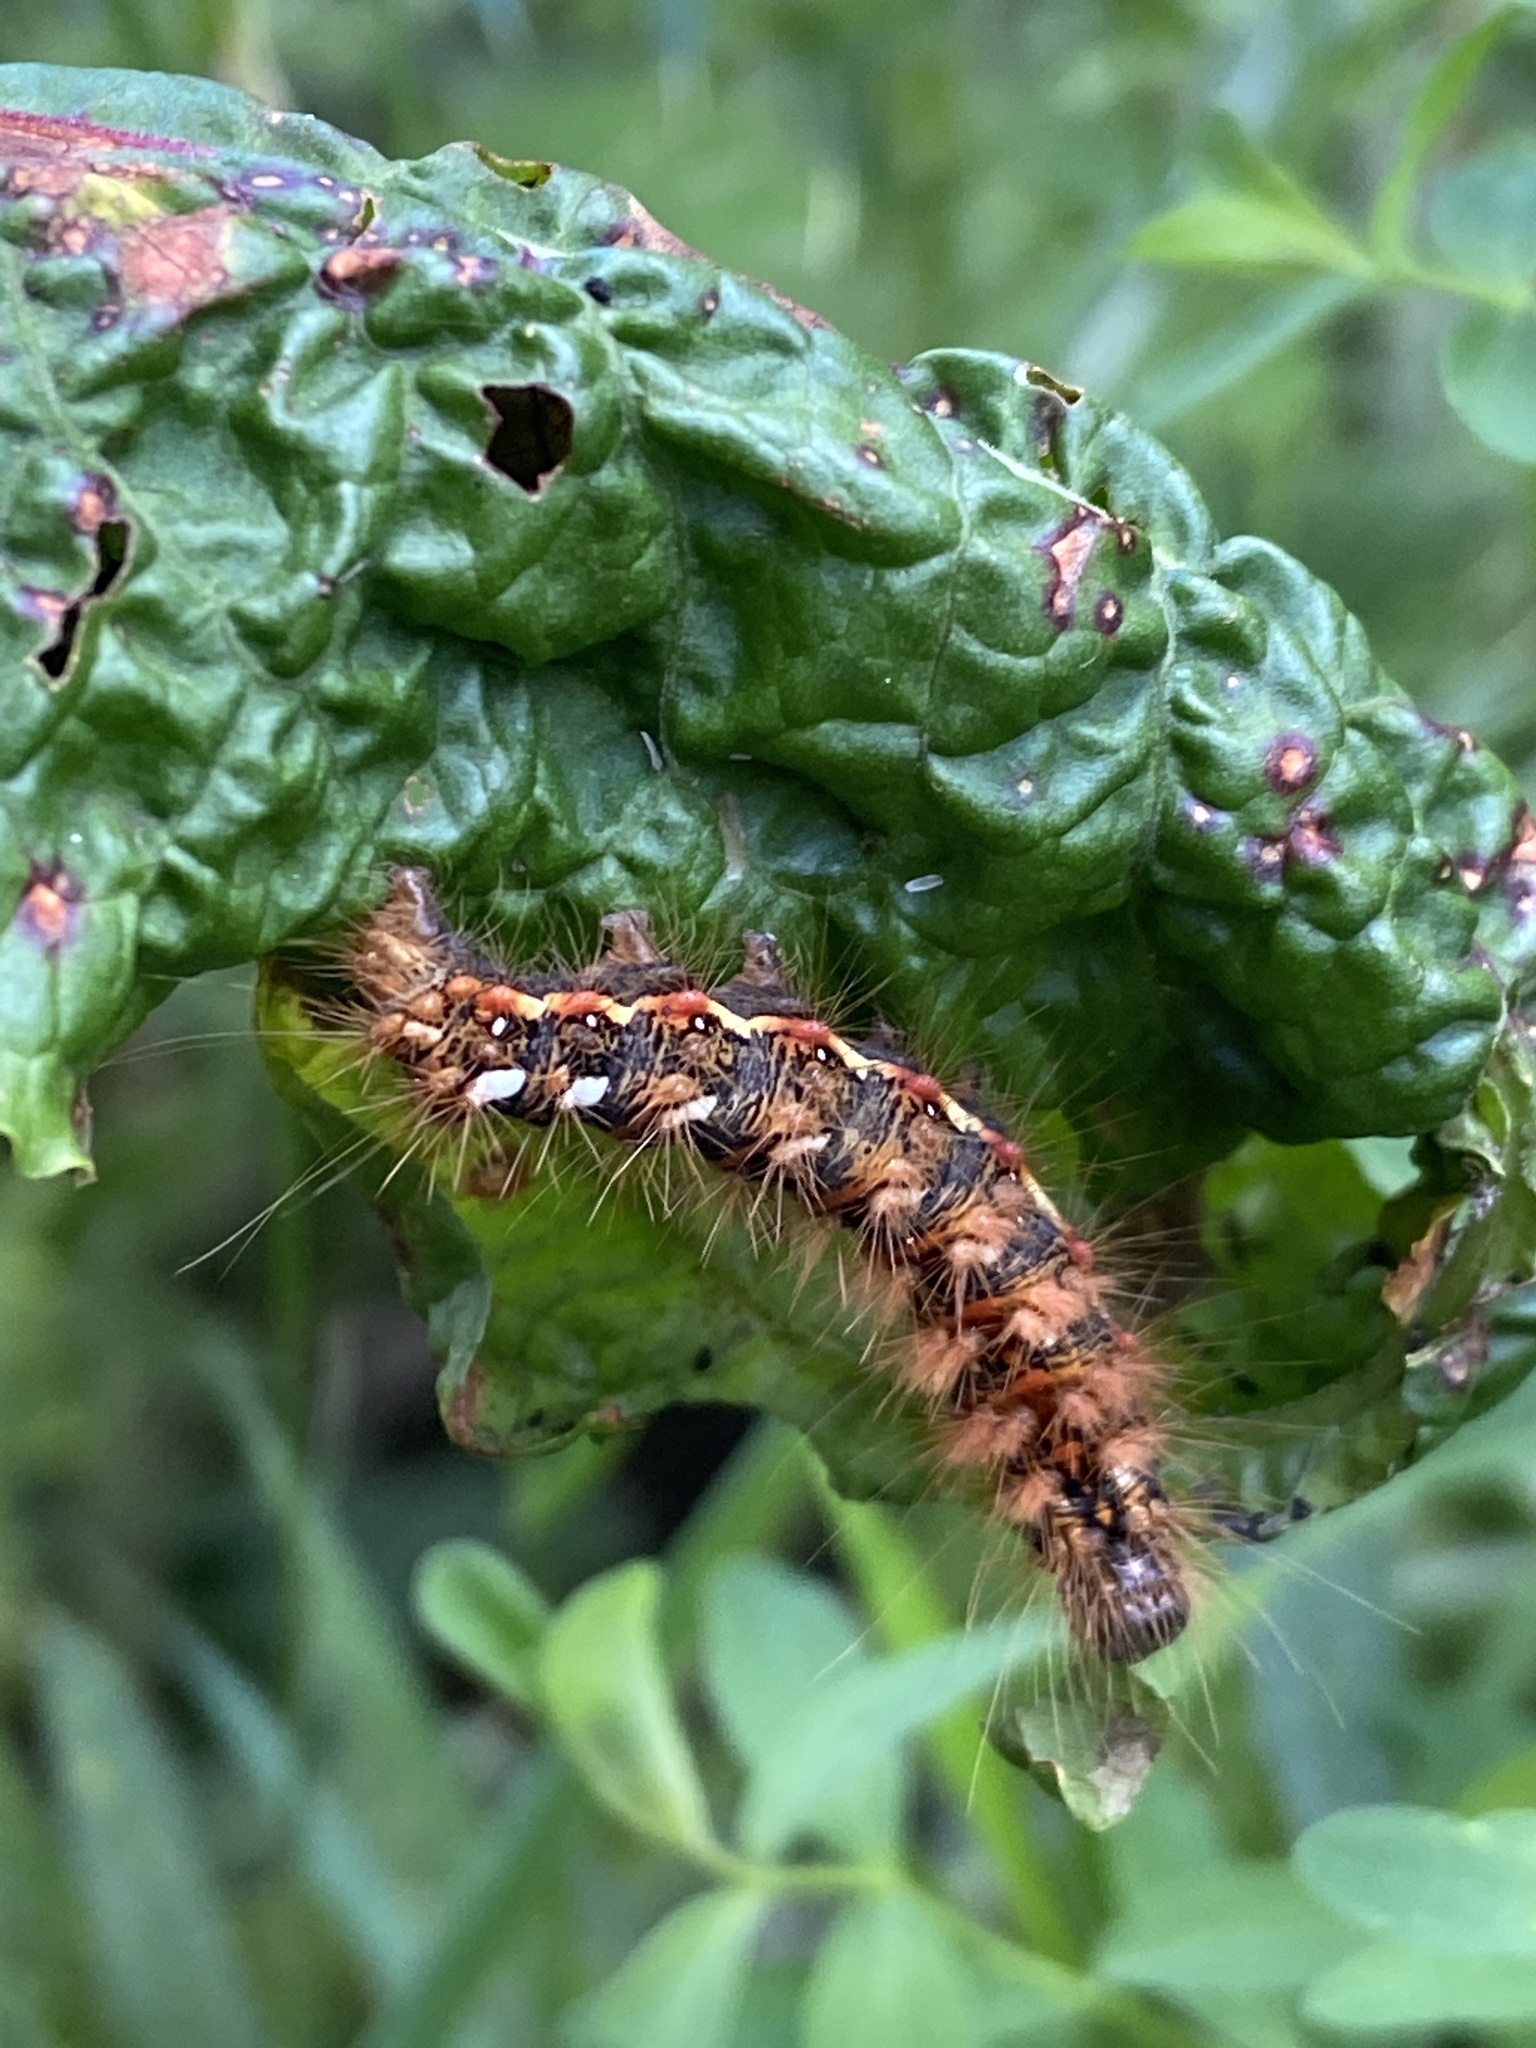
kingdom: Animalia
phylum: Arthropoda
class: Insecta
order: Lepidoptera
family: Noctuidae
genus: Acronicta
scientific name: Acronicta rumicis
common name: Knot grass
